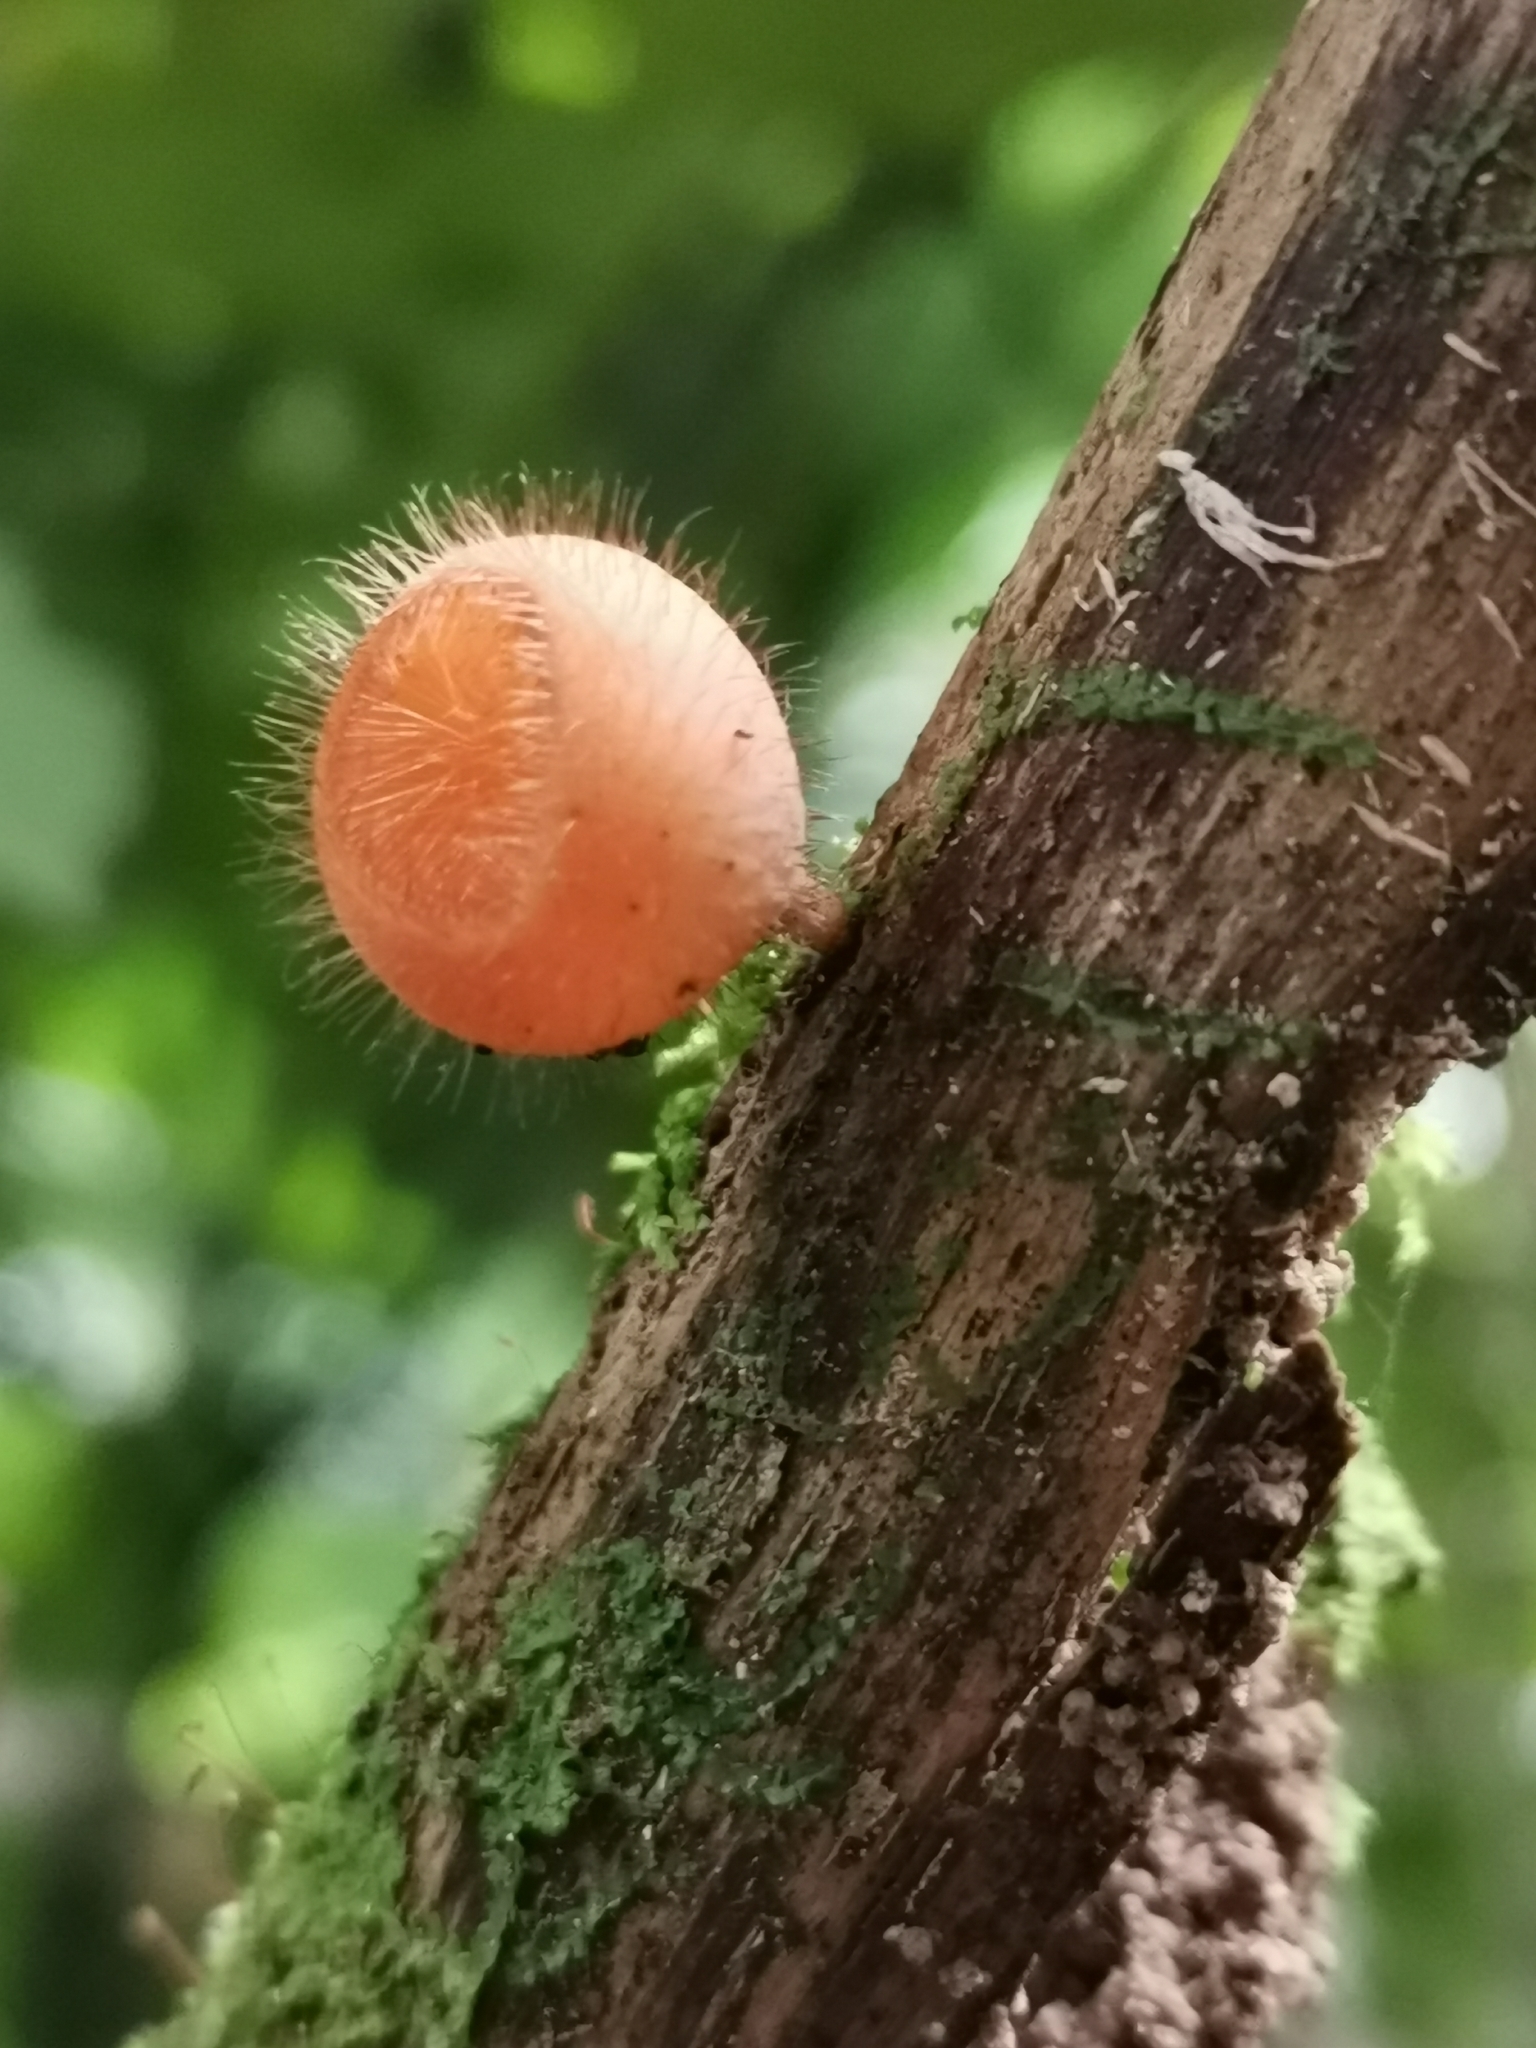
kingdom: Fungi
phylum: Ascomycota
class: Pezizomycetes
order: Pezizales
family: Sarcoscyphaceae
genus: Cookeina
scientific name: Cookeina tricholoma
